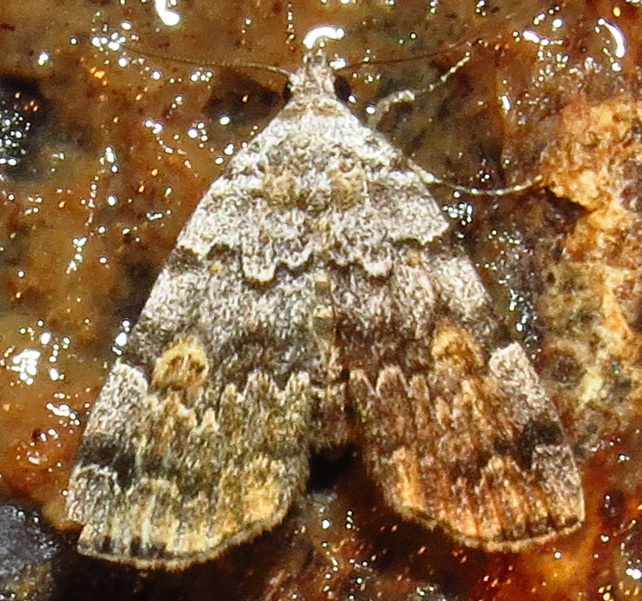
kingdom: Animalia
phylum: Arthropoda
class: Insecta
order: Lepidoptera
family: Erebidae
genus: Idia
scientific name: Idia americalis
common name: American idia moth
